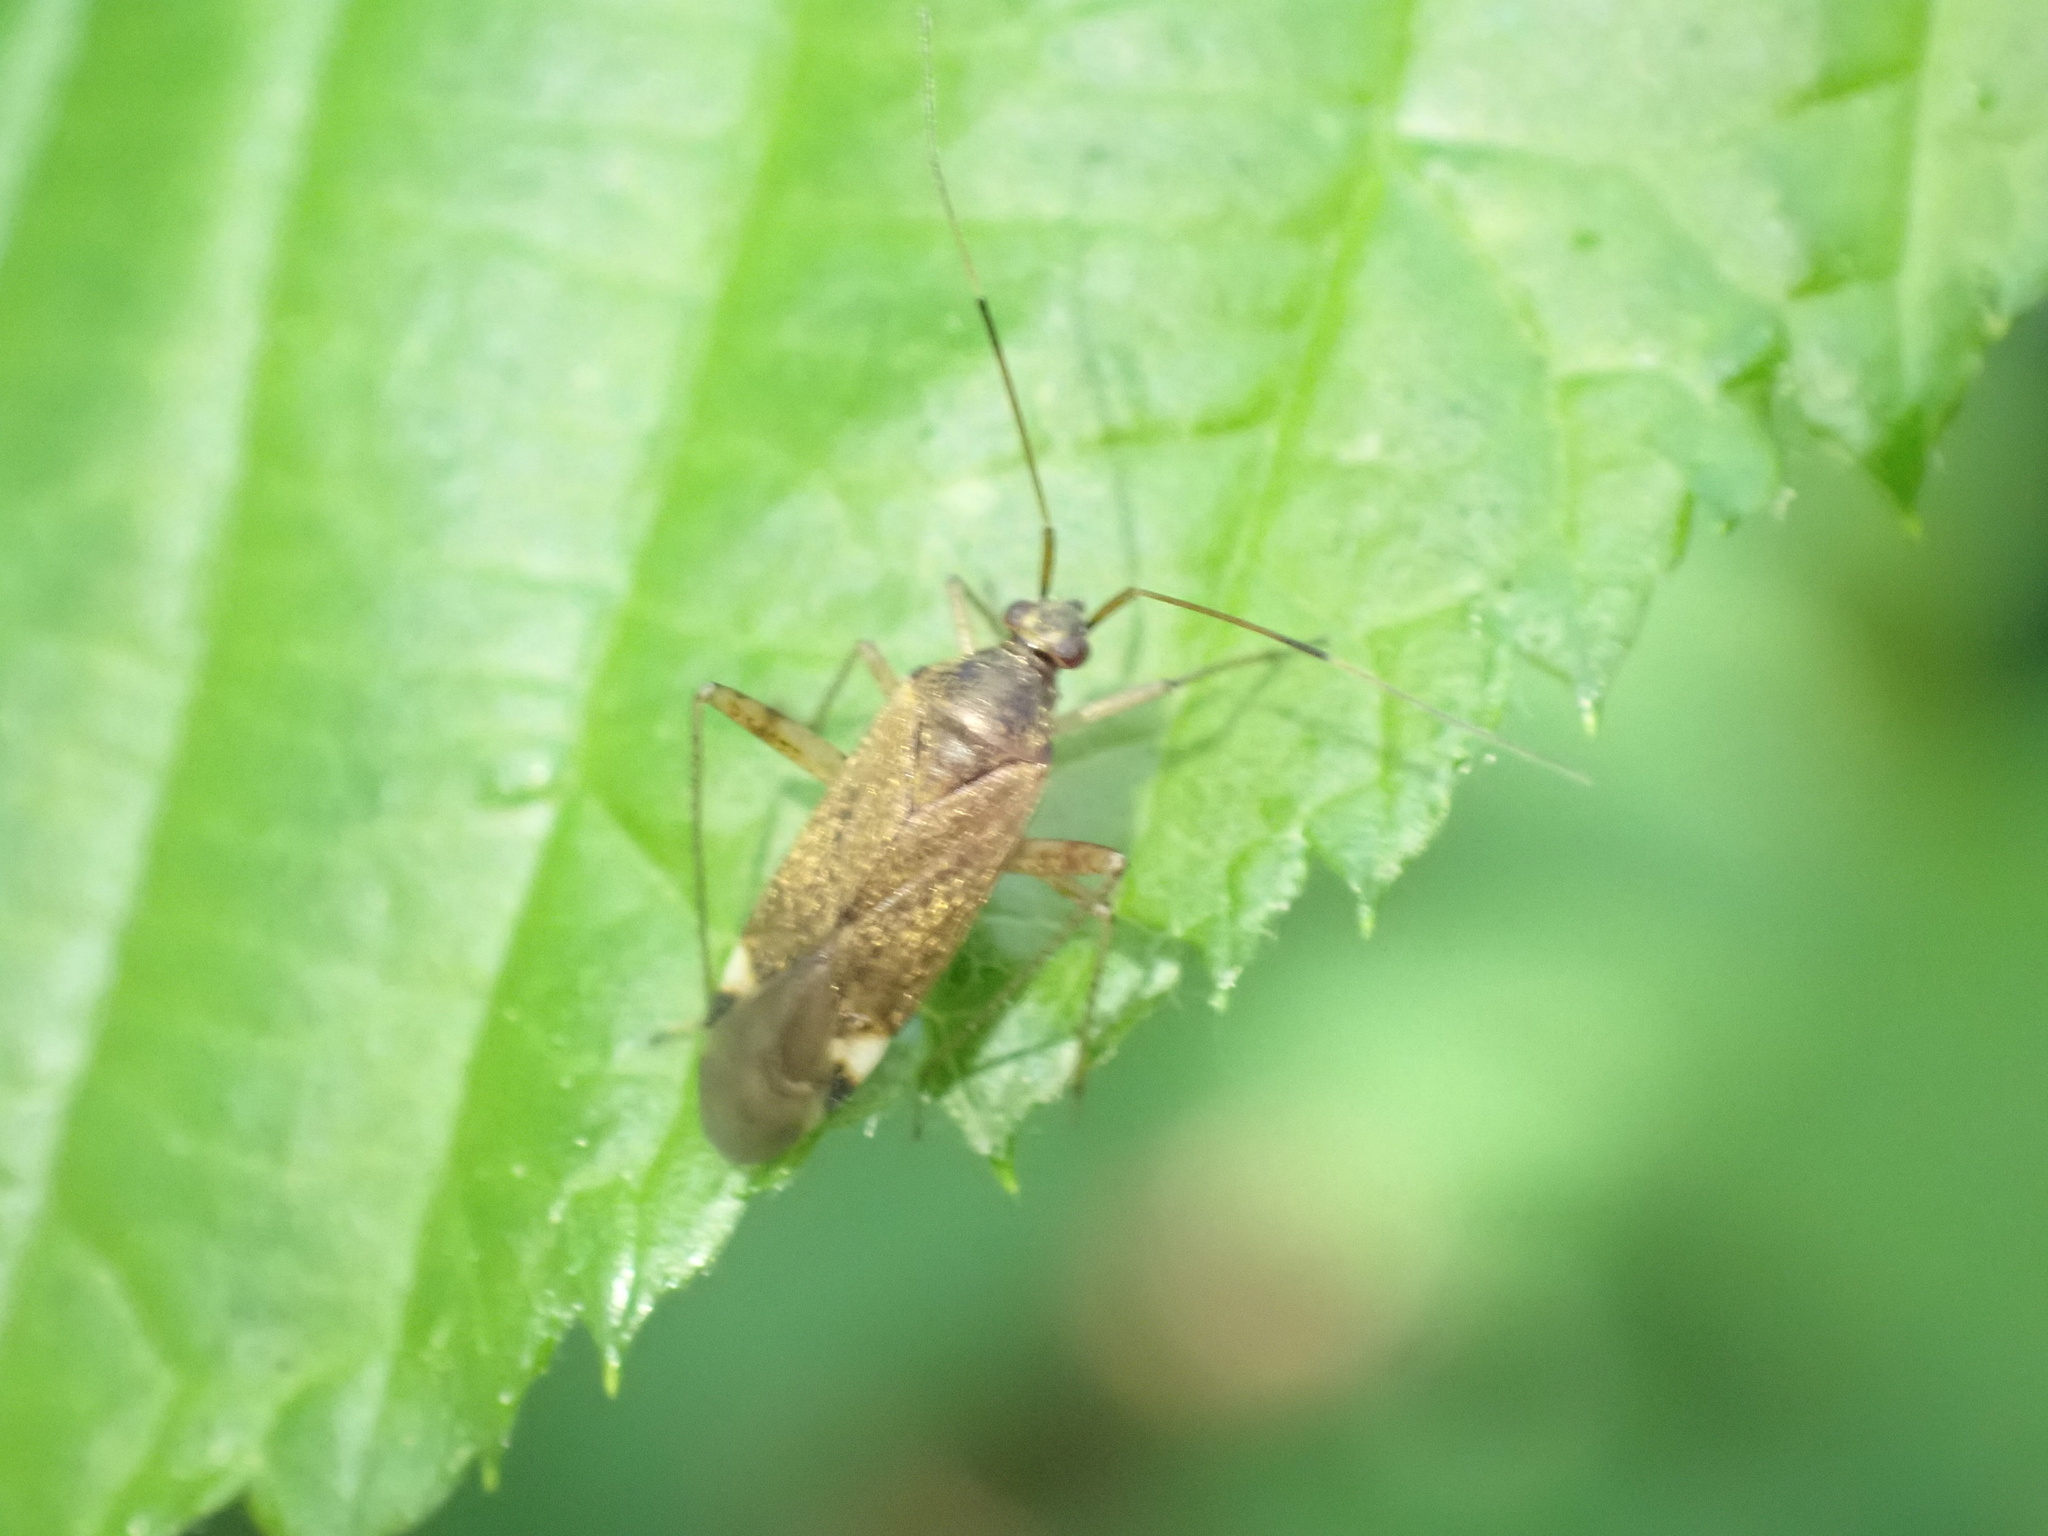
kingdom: Animalia
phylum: Arthropoda
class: Insecta
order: Hemiptera
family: Miridae
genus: Closterotomus
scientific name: Closterotomus fulvomaculatus
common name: Spotted plant bug
